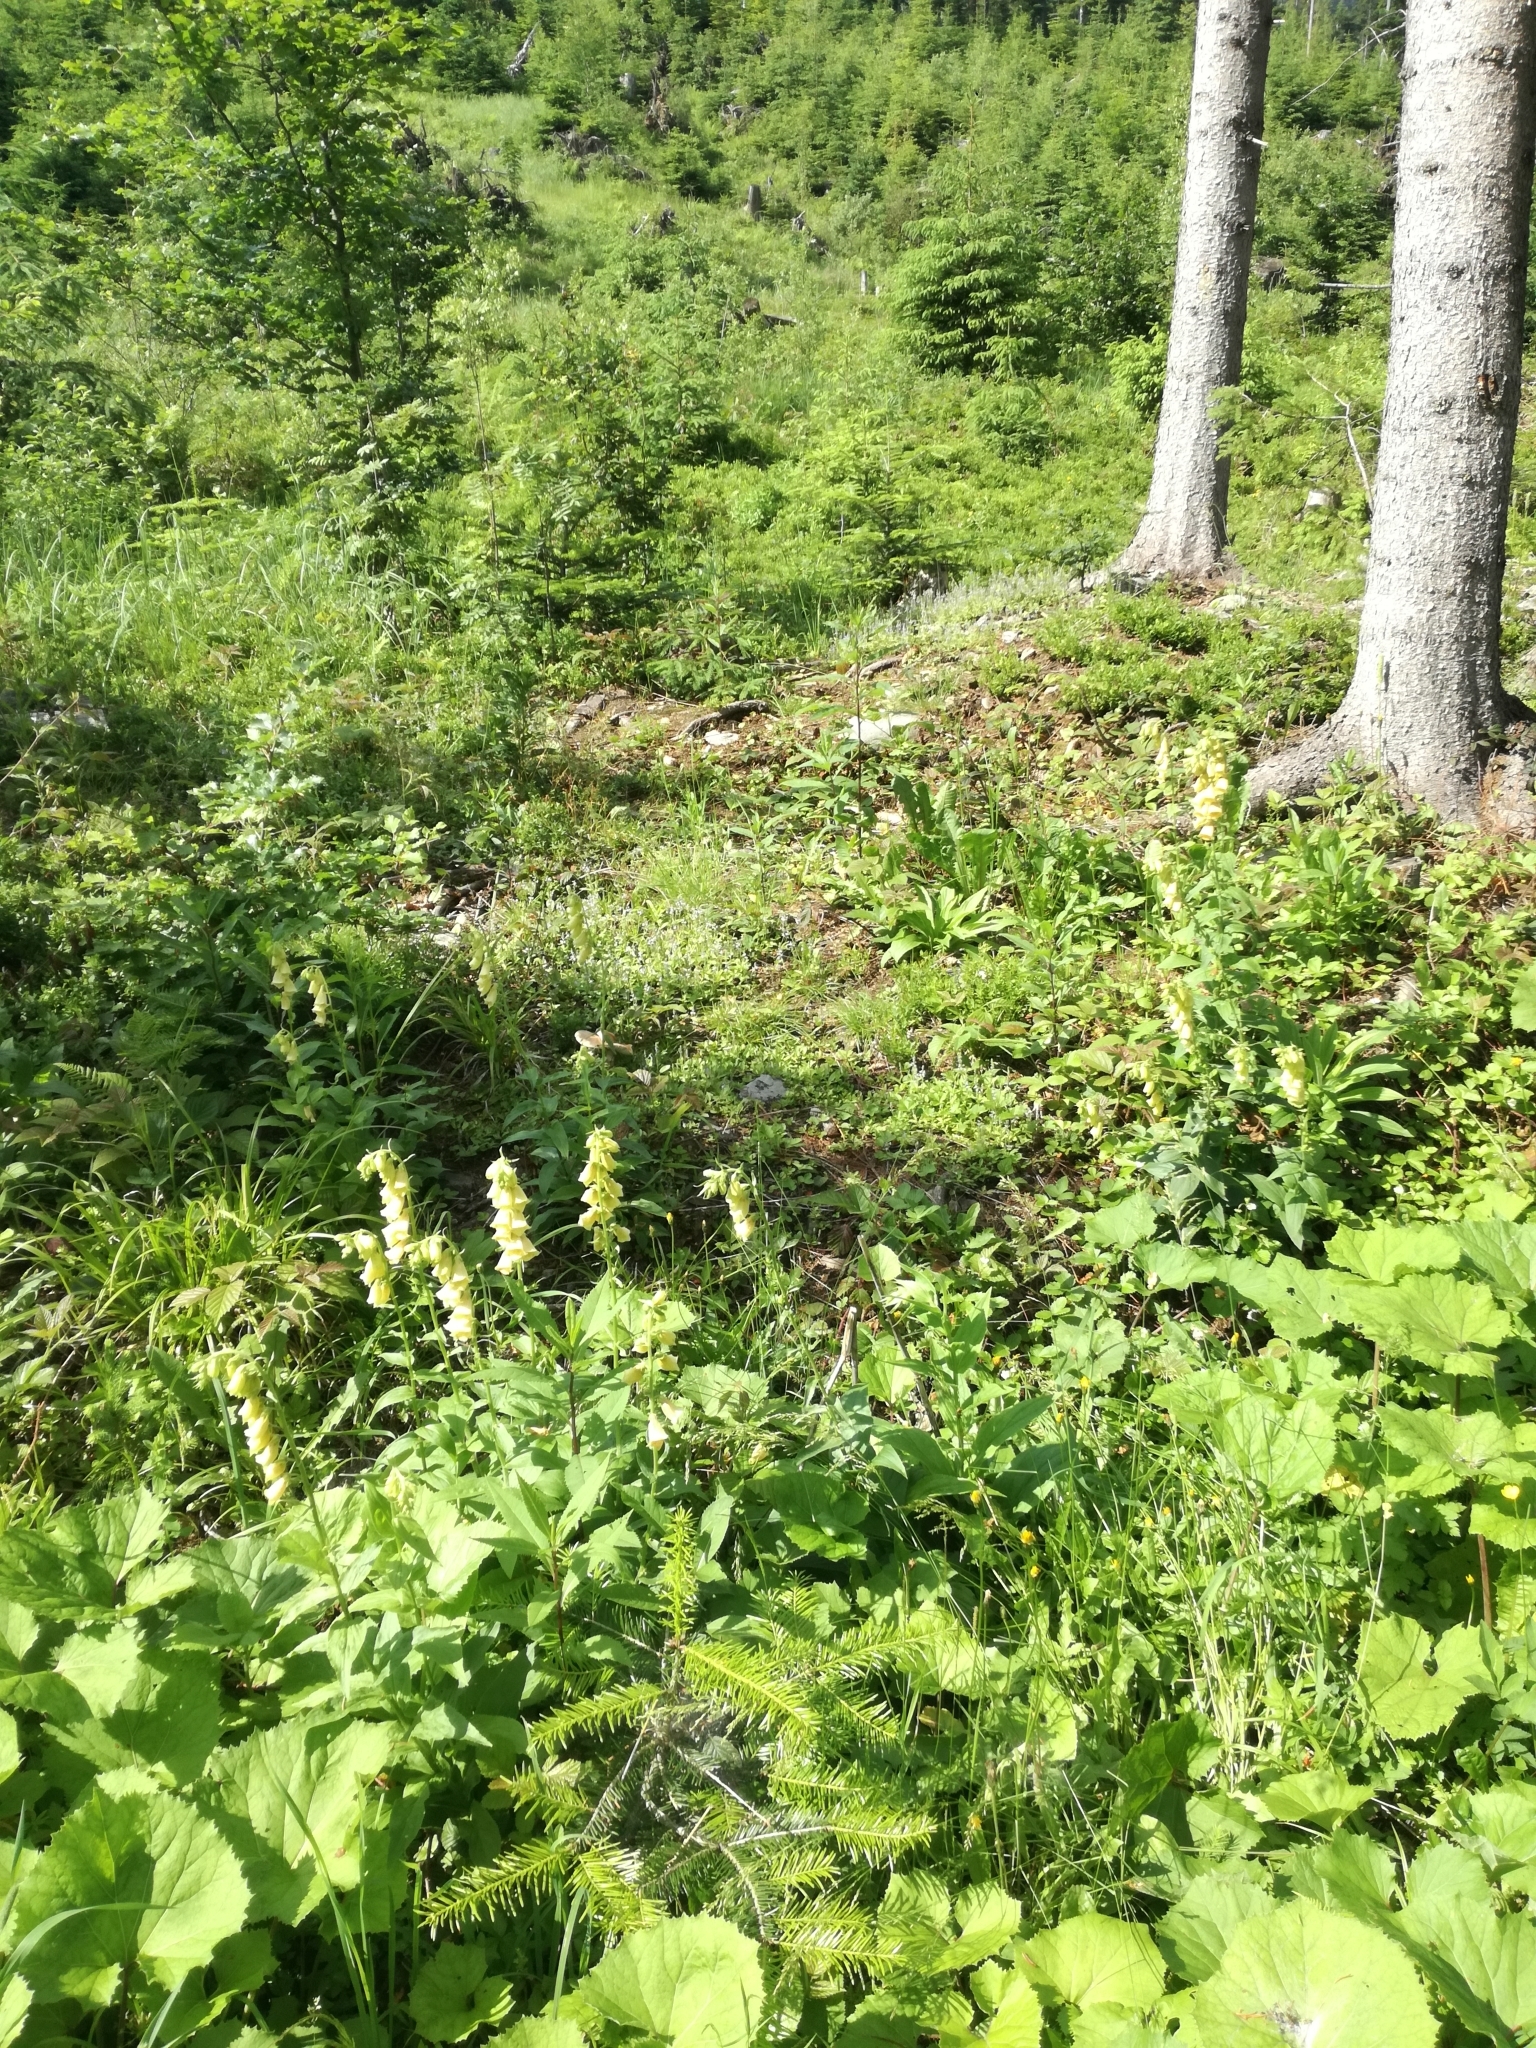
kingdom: Plantae
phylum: Tracheophyta
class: Magnoliopsida
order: Lamiales
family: Plantaginaceae
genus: Digitalis
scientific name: Digitalis grandiflora
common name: Yellow foxglove
